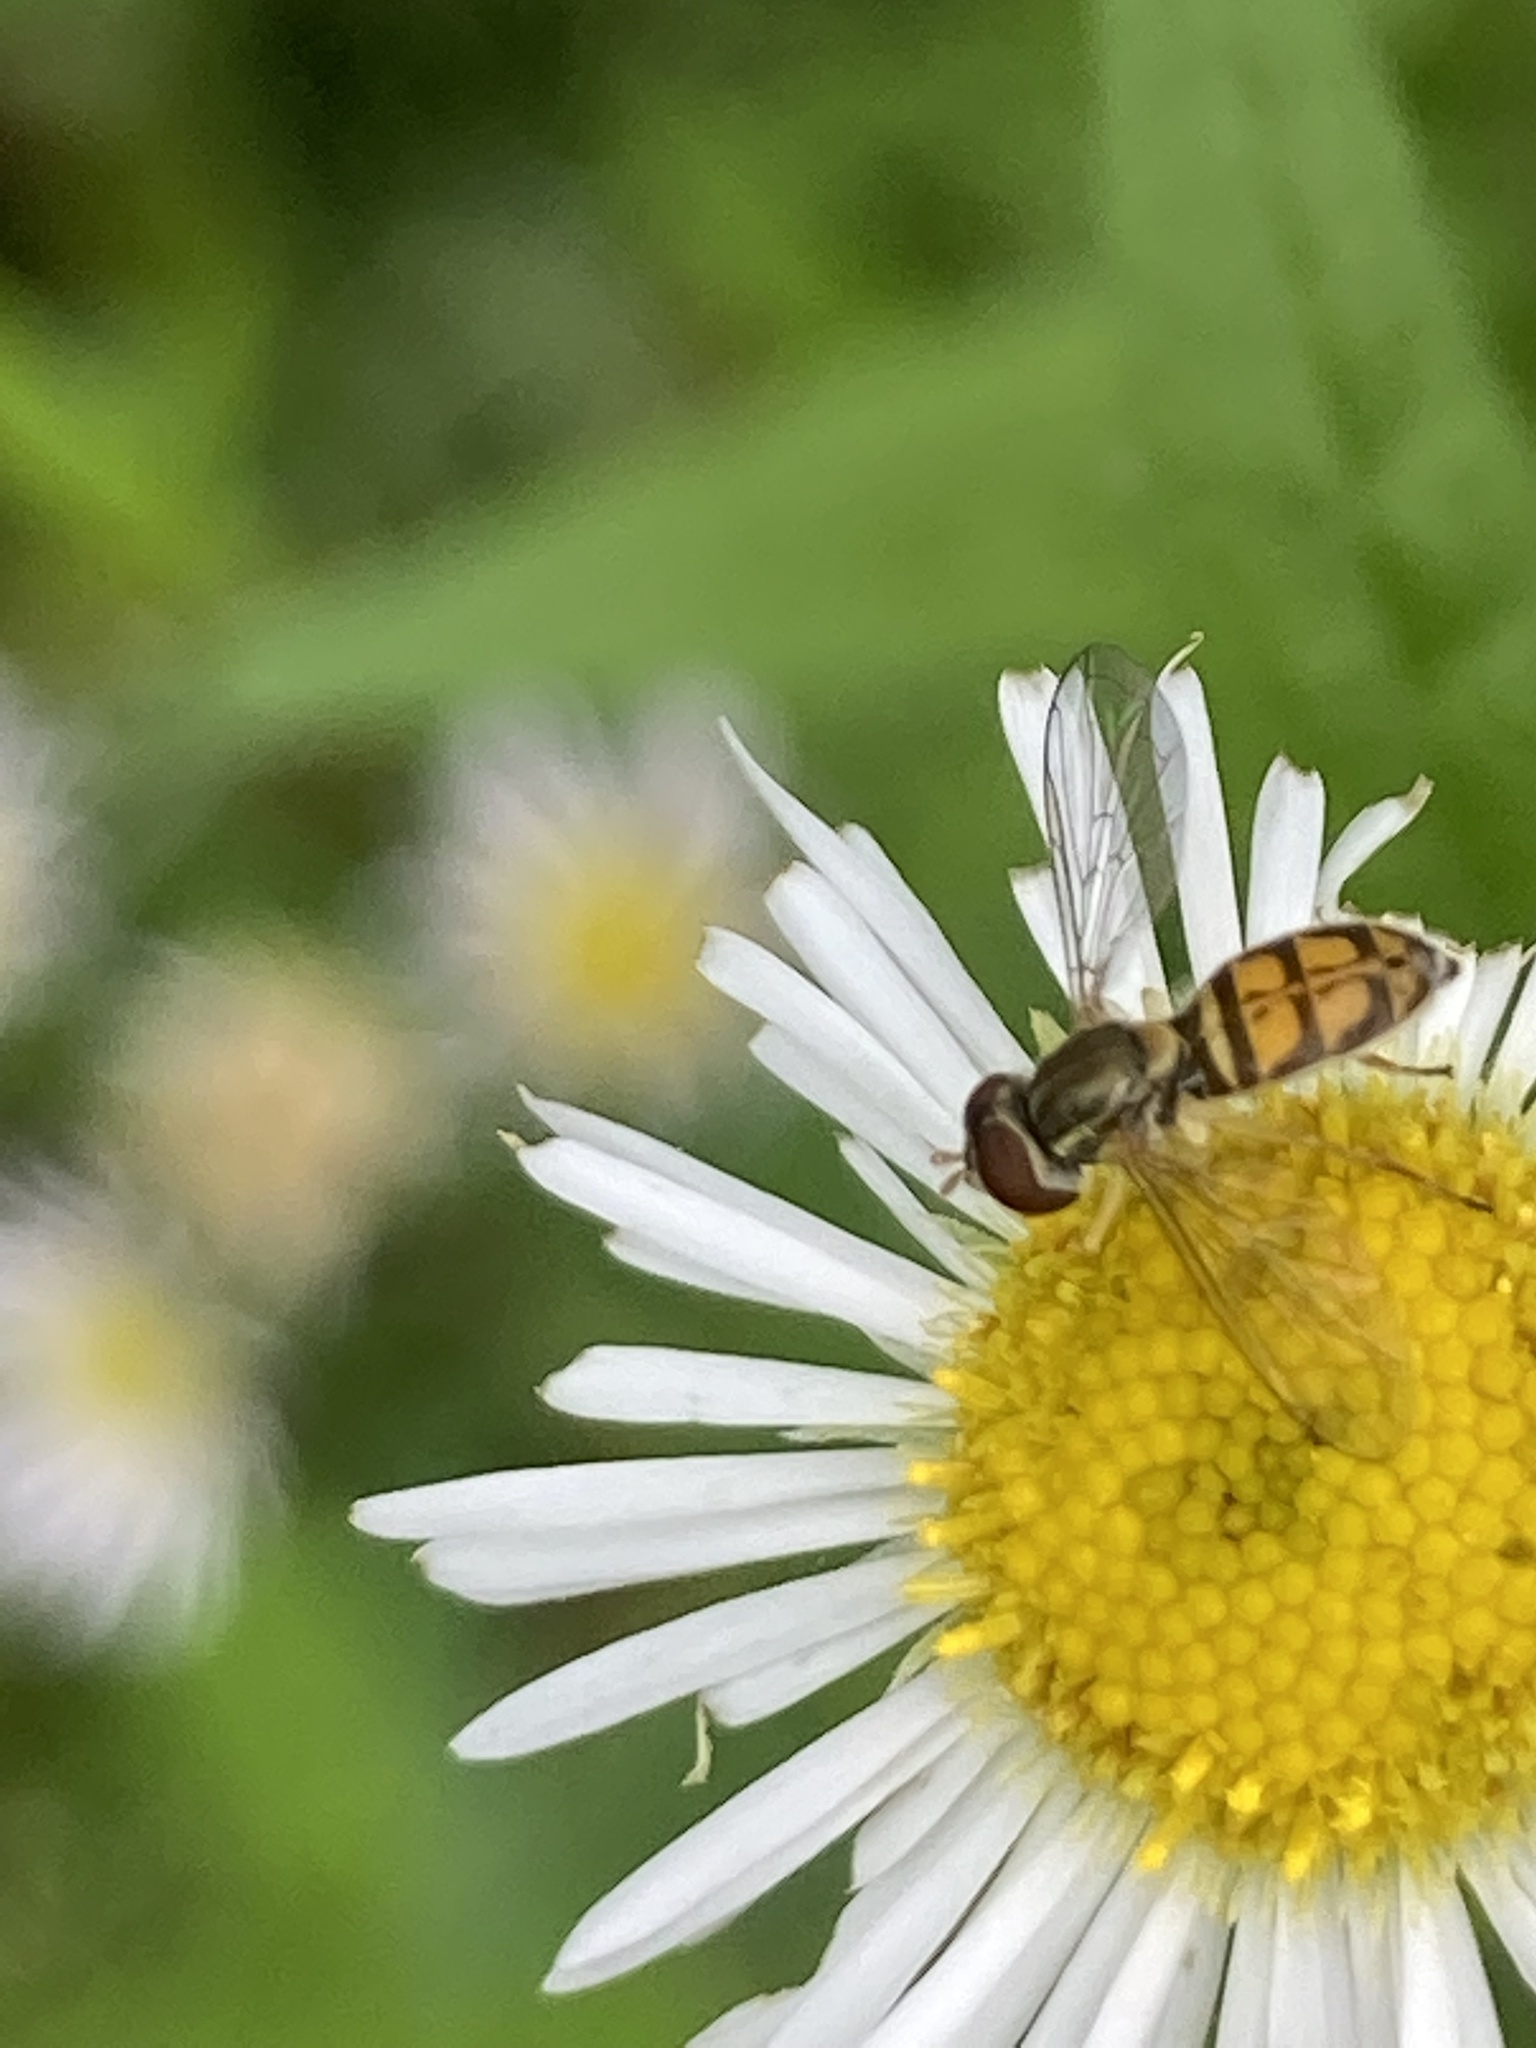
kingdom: Animalia
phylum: Arthropoda
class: Insecta
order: Diptera
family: Syrphidae
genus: Toxomerus
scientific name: Toxomerus marginatus
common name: Syrphid fly
